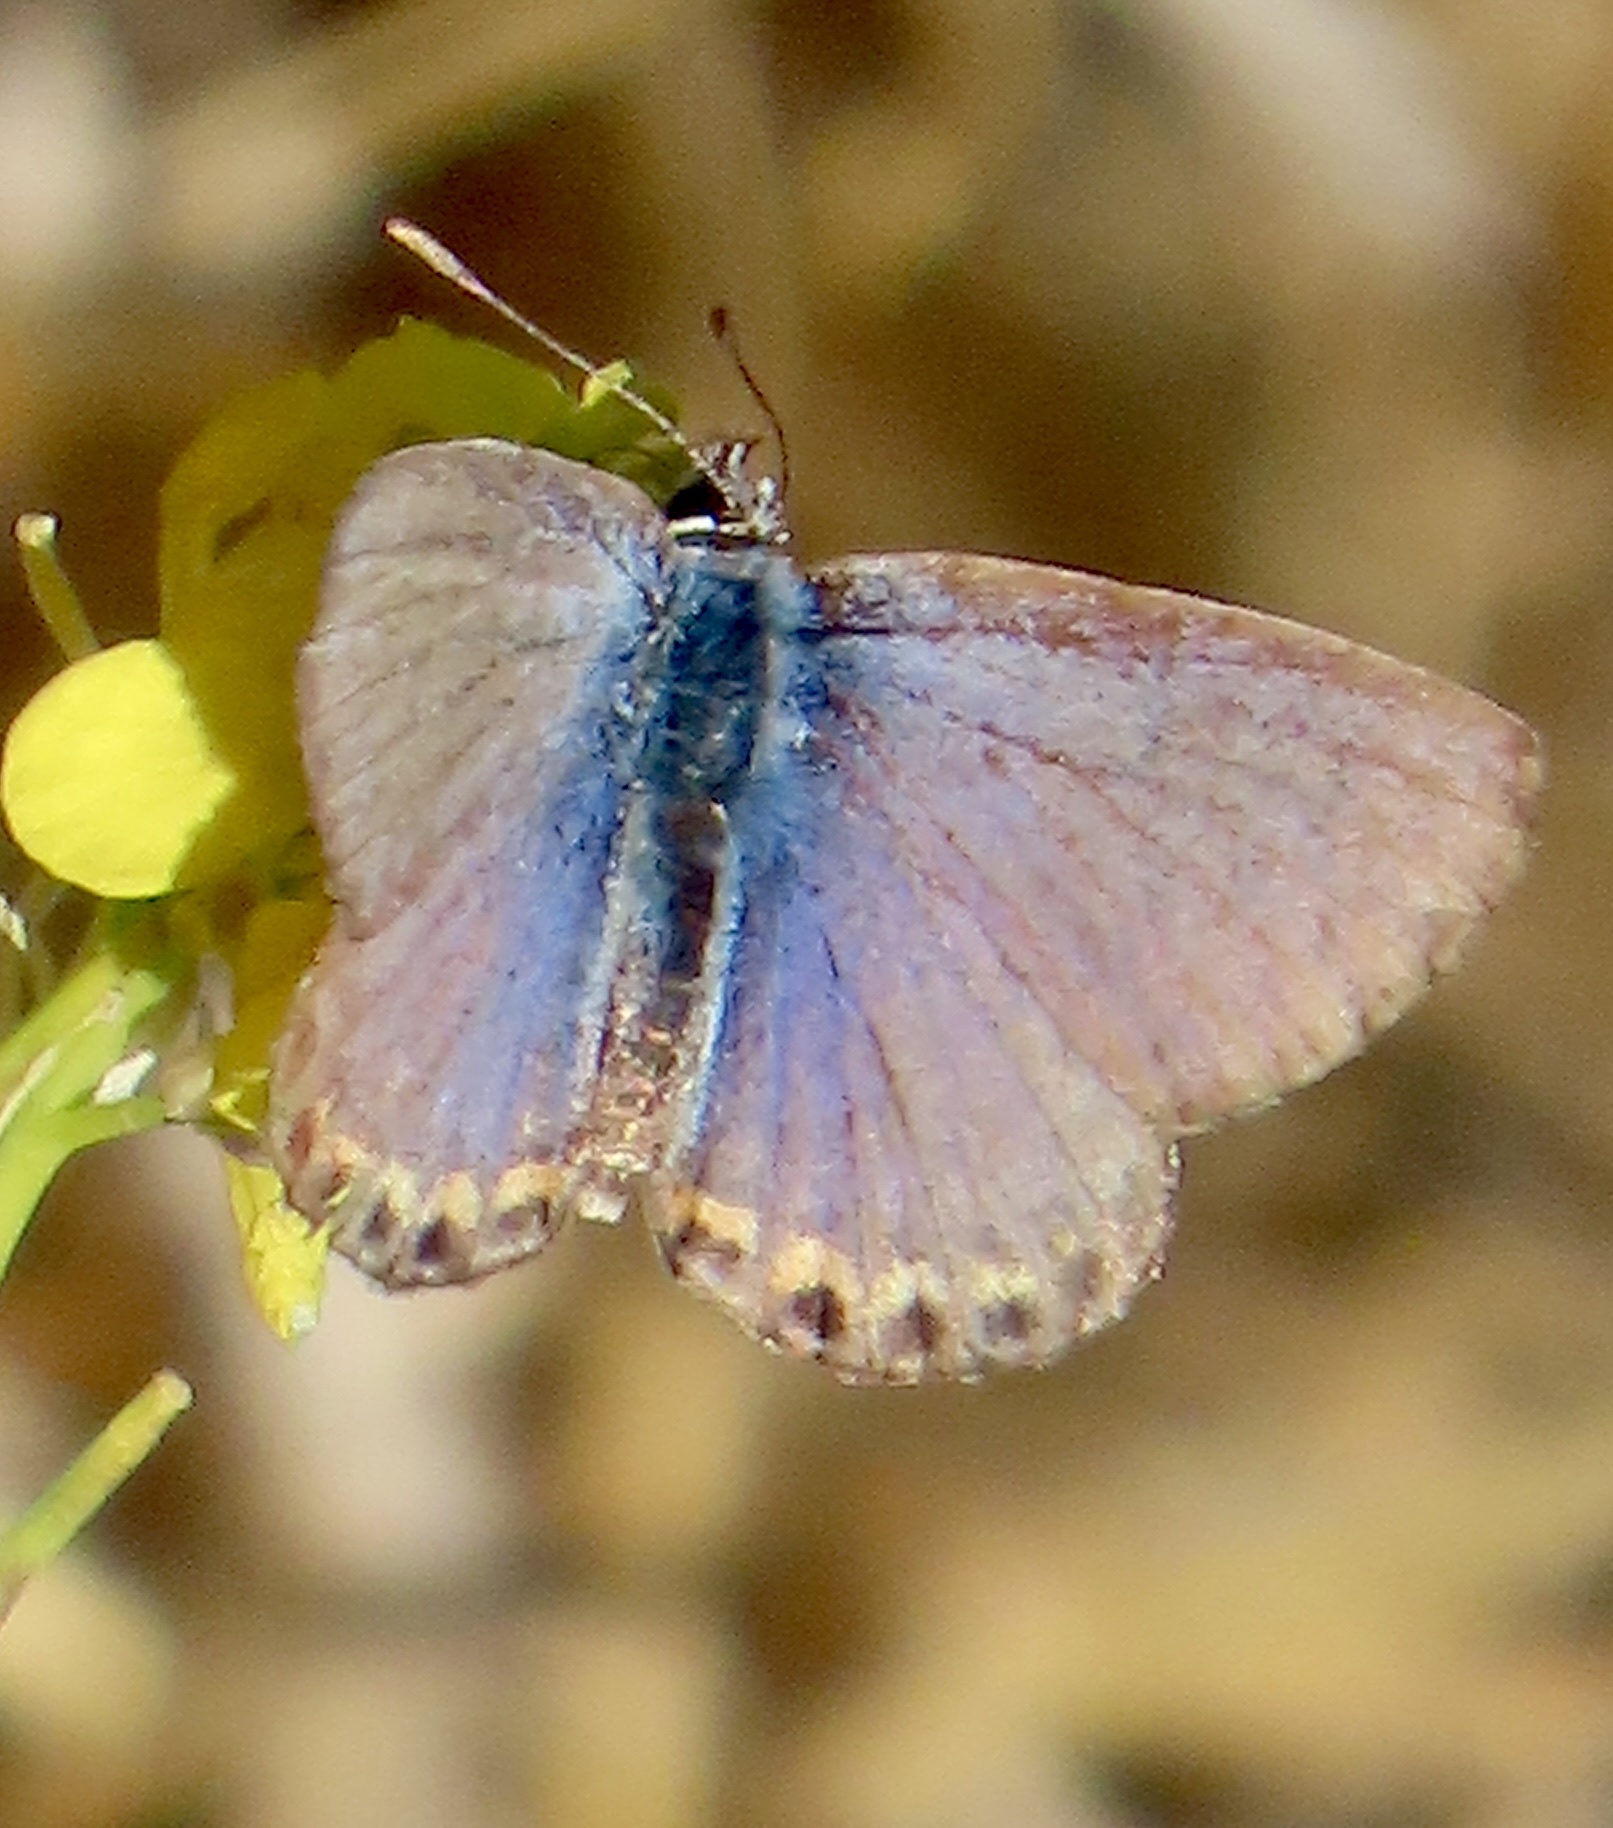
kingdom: Animalia
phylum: Arthropoda
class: Insecta
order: Lepidoptera
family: Lycaenidae
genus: Icaricia
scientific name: Icaricia acmon
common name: Acmon blue
